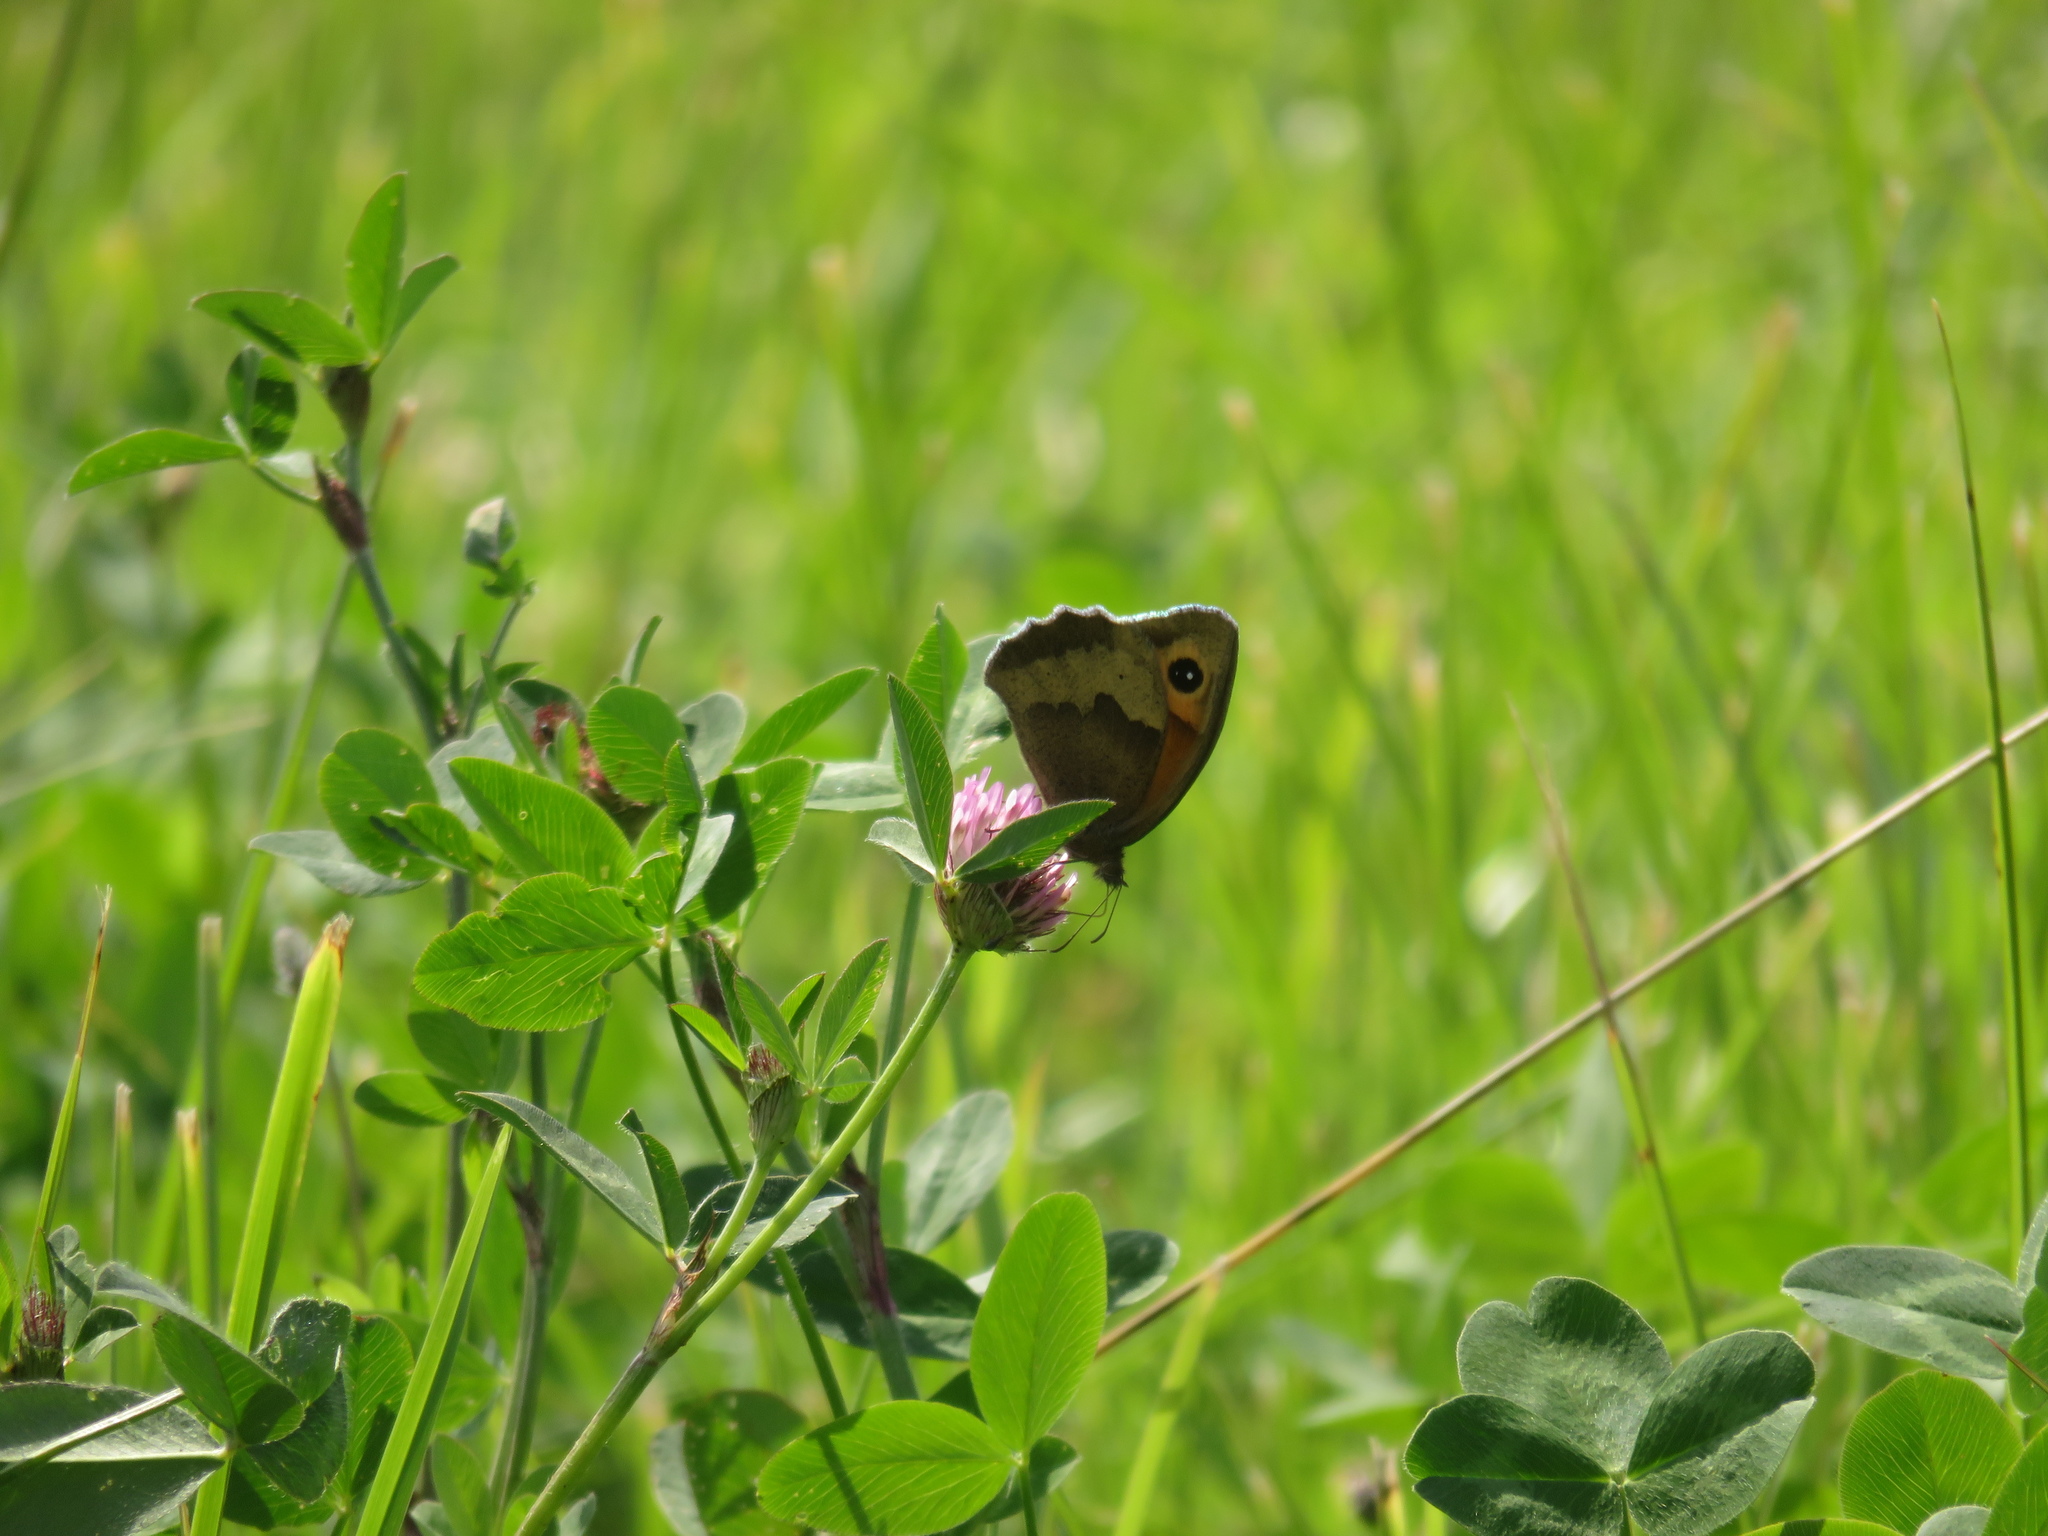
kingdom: Animalia
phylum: Arthropoda
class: Insecta
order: Lepidoptera
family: Nymphalidae
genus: Maniola
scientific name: Maniola jurtina
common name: Meadow brown
